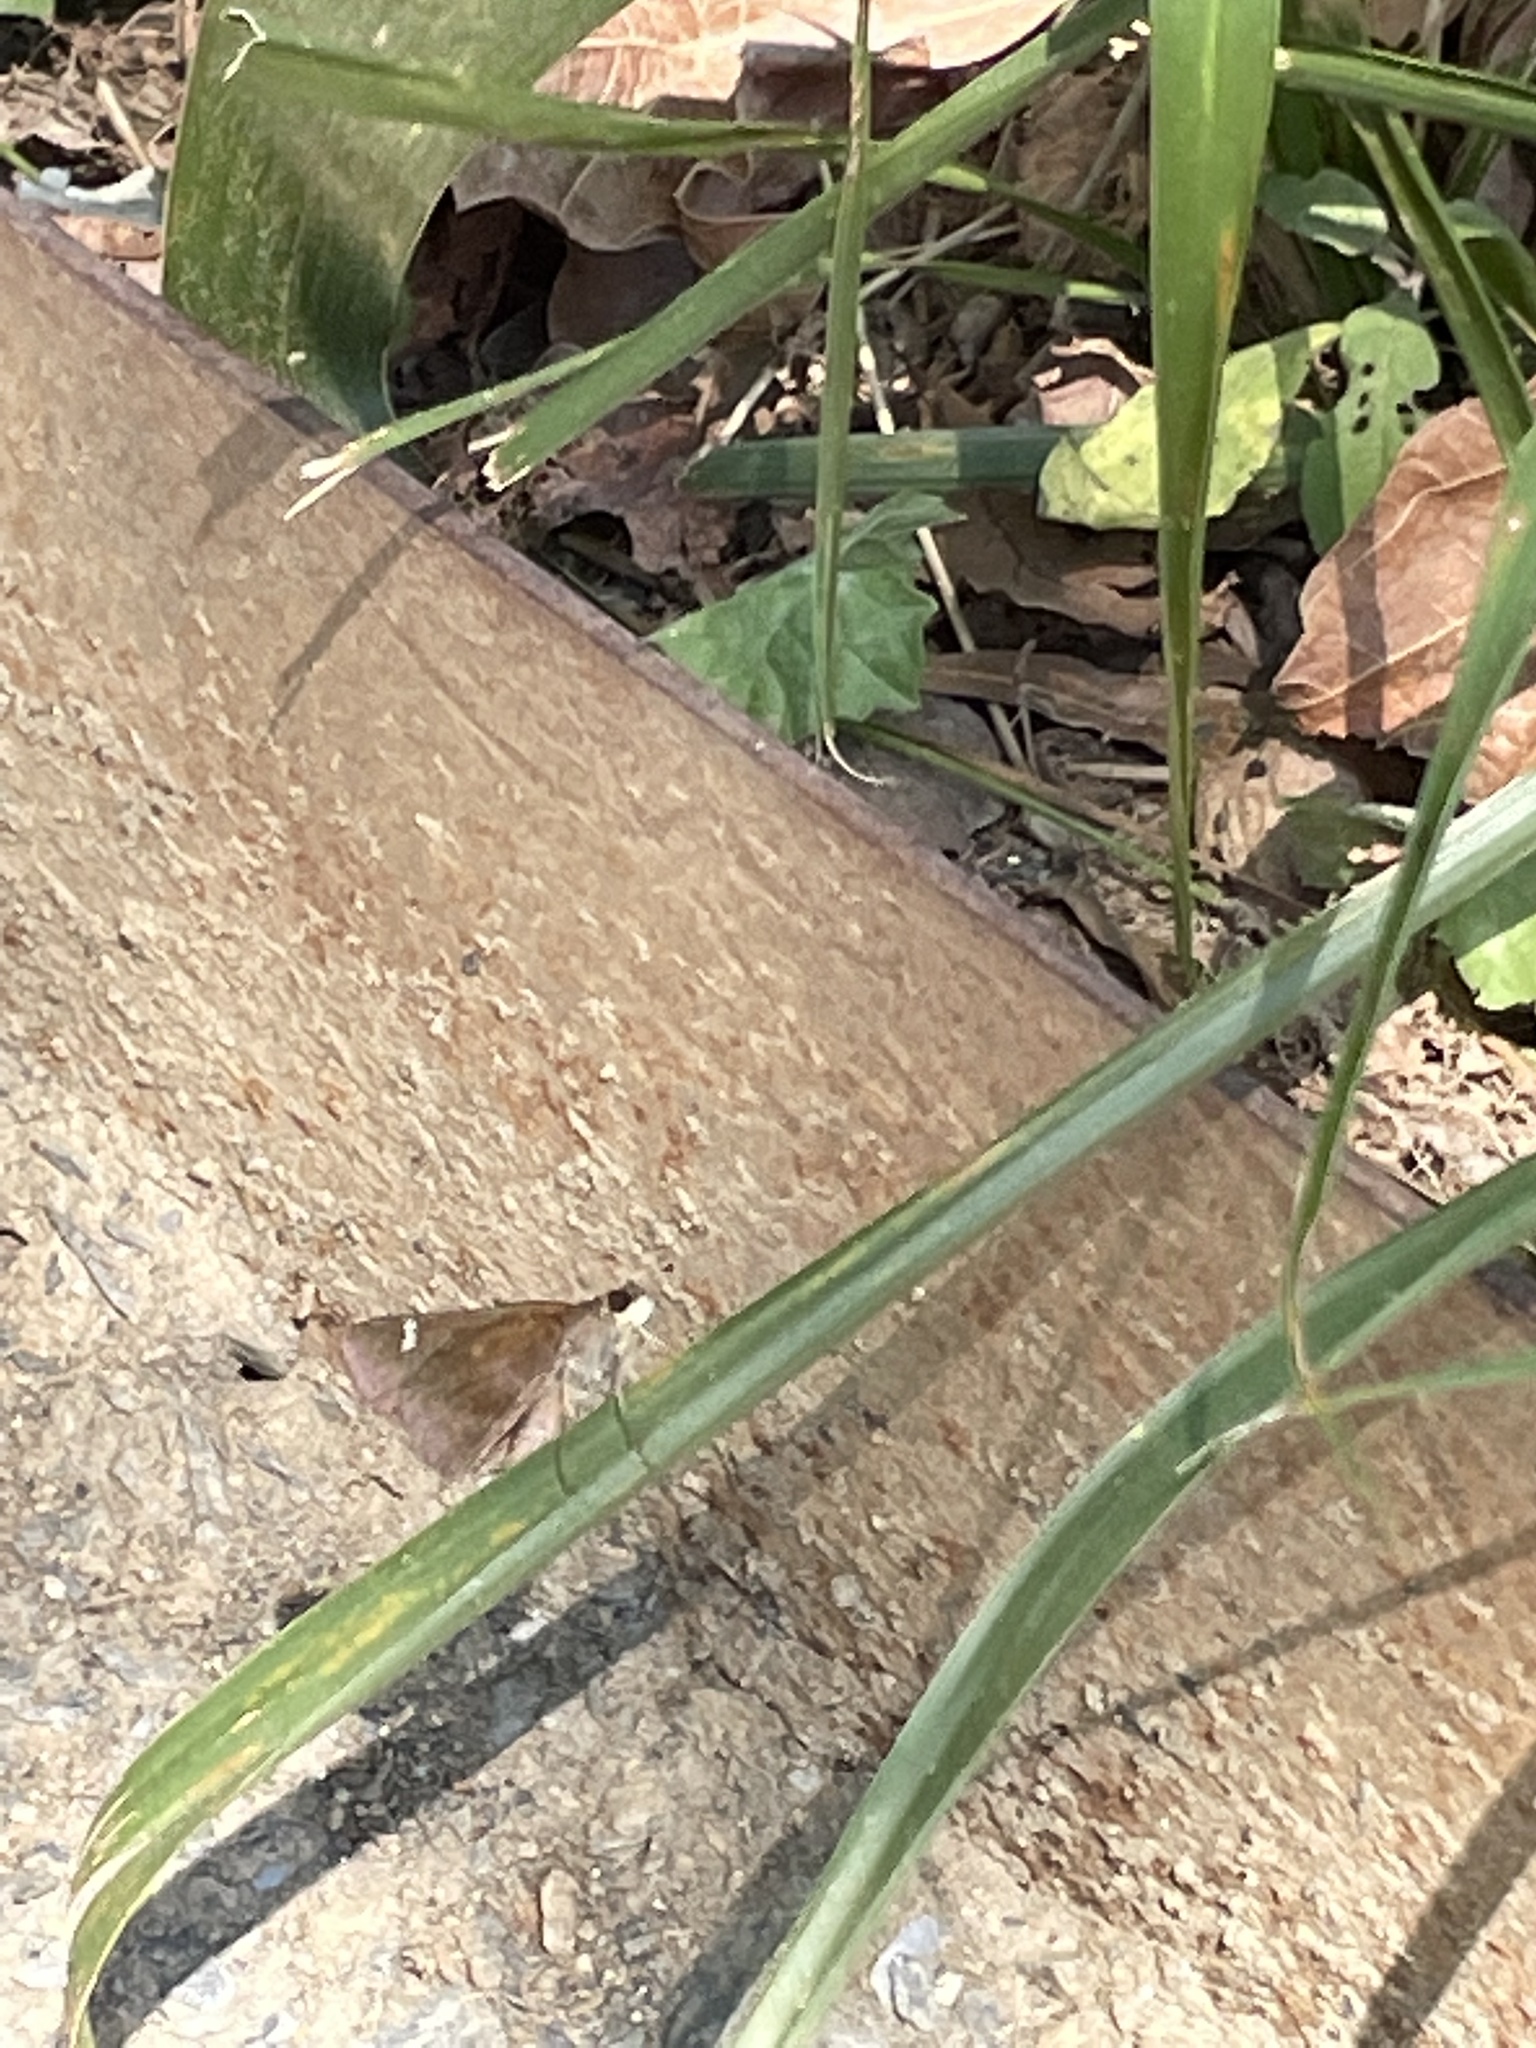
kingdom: Animalia
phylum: Arthropoda
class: Insecta
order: Lepidoptera
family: Hesperiidae
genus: Lerema
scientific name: Lerema accius
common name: Clouded skipper
